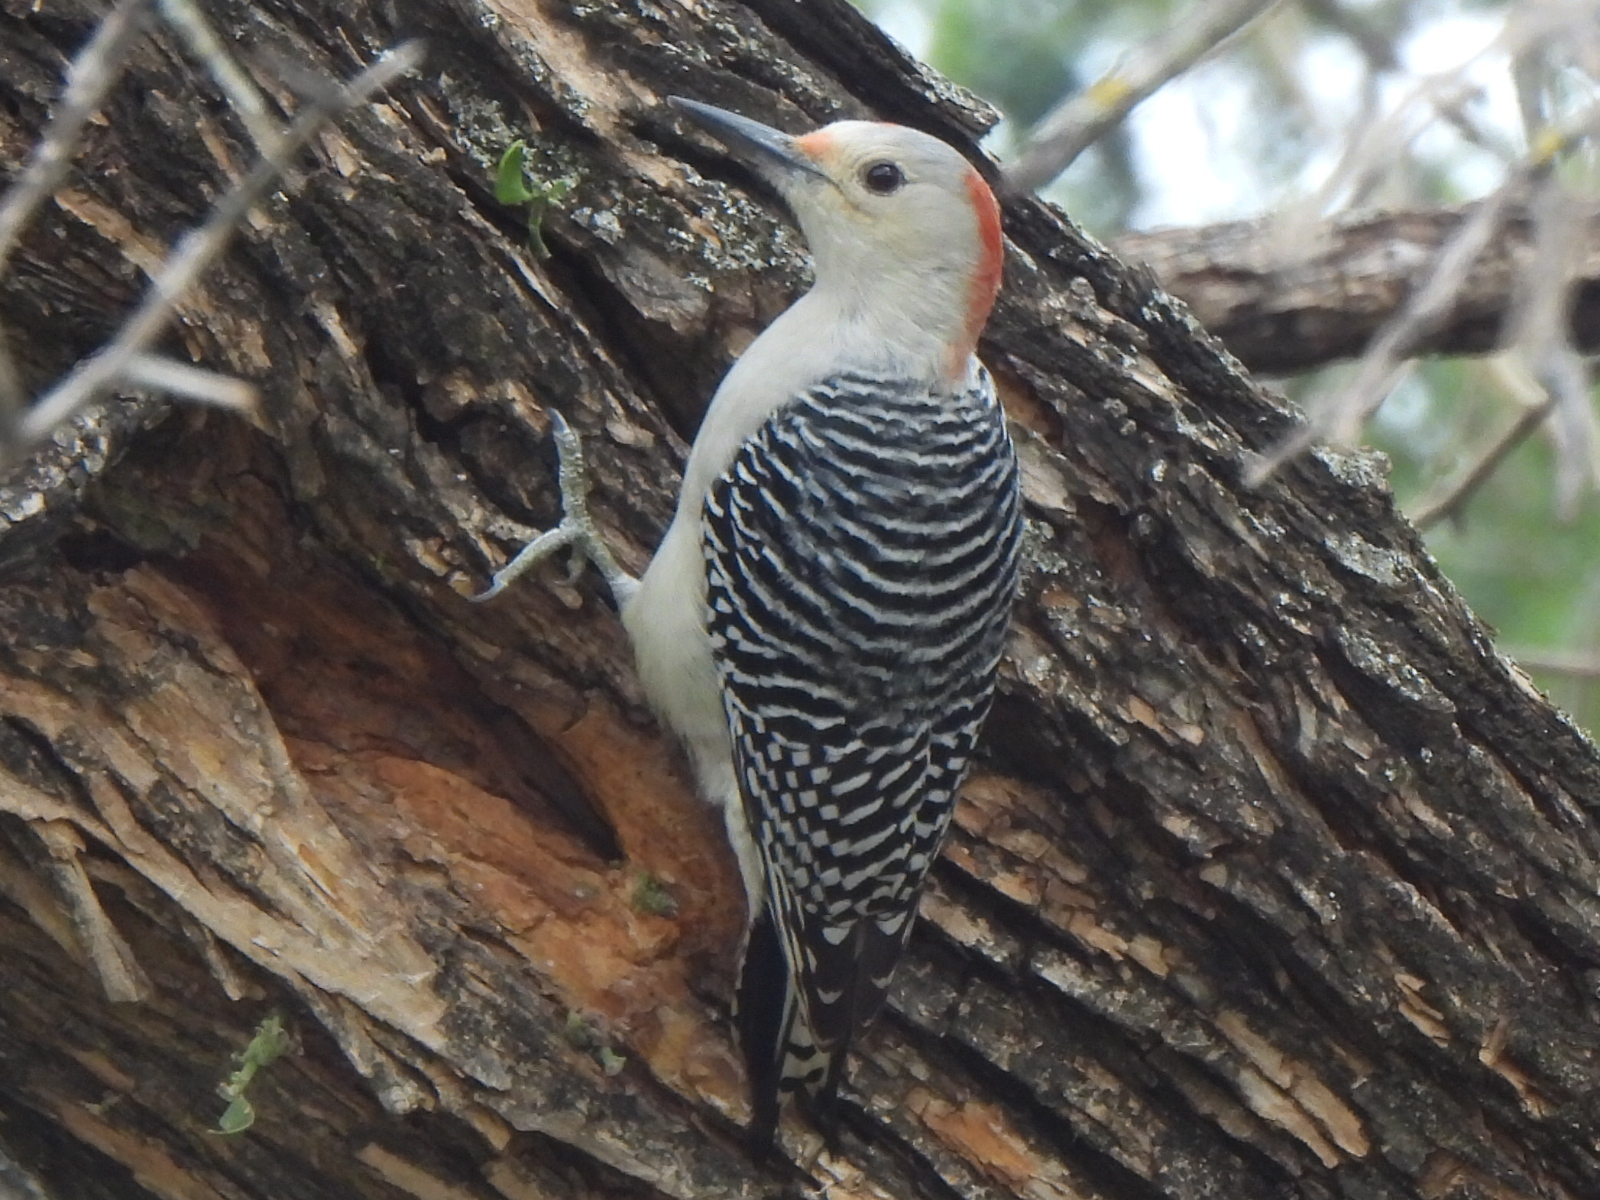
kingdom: Animalia
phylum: Chordata
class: Aves
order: Piciformes
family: Picidae
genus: Melanerpes
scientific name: Melanerpes carolinus
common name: Red-bellied woodpecker
